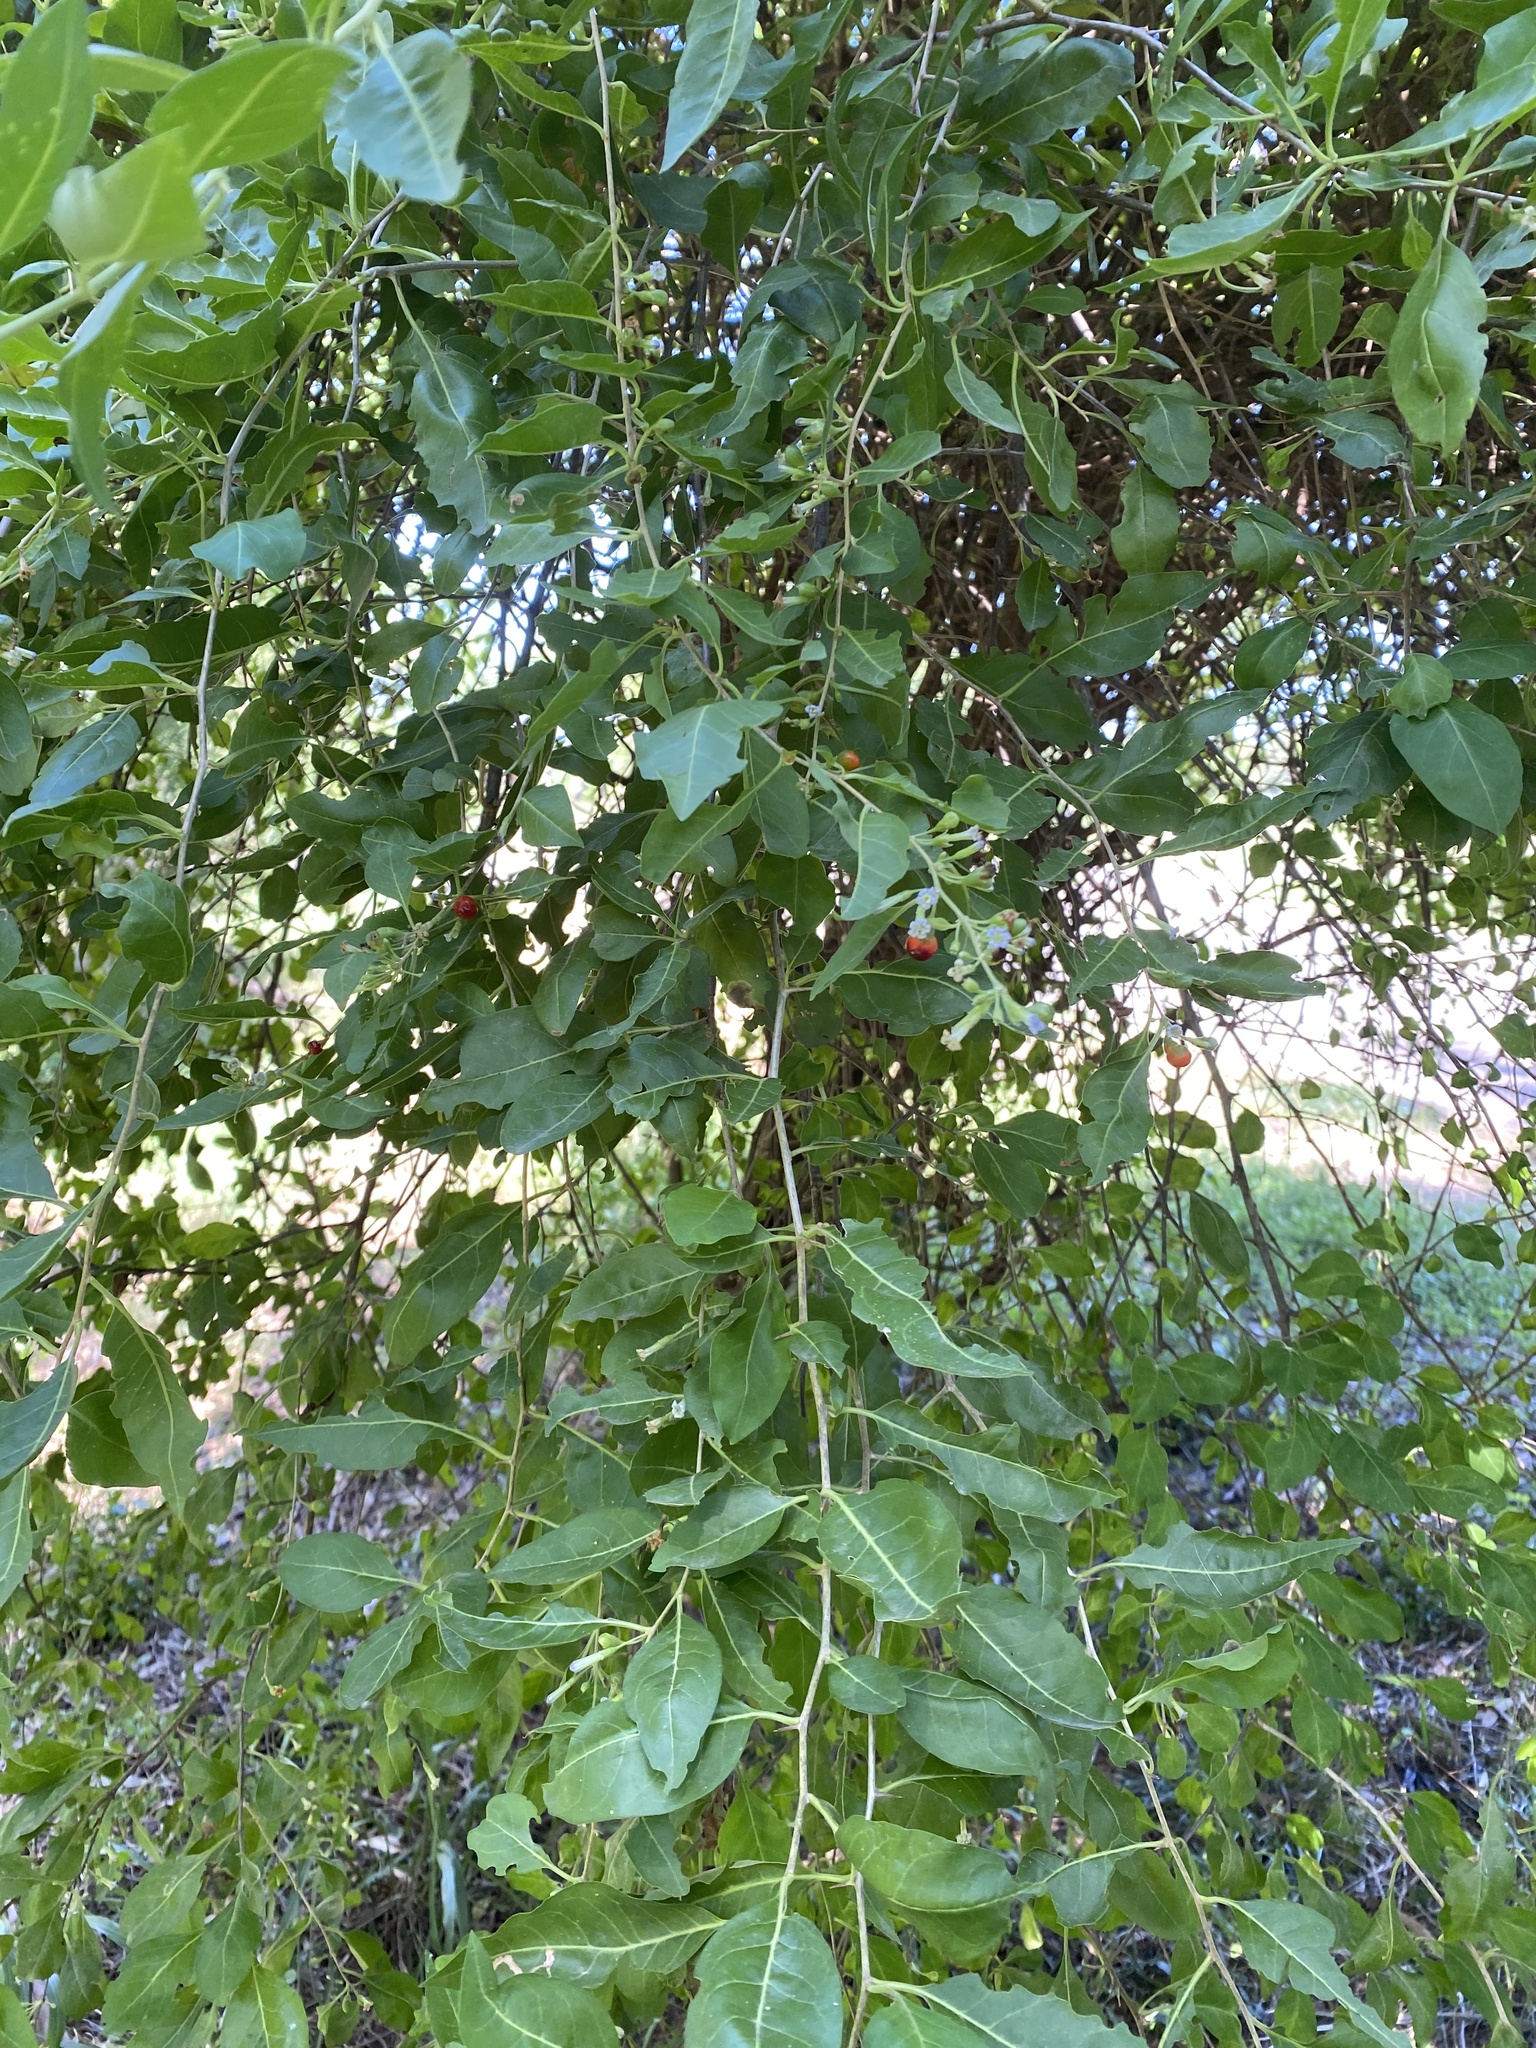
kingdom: Plantae
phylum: Tracheophyta
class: Magnoliopsida
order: Solanales
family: Solanaceae
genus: Lycium
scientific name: Lycium cestroides
